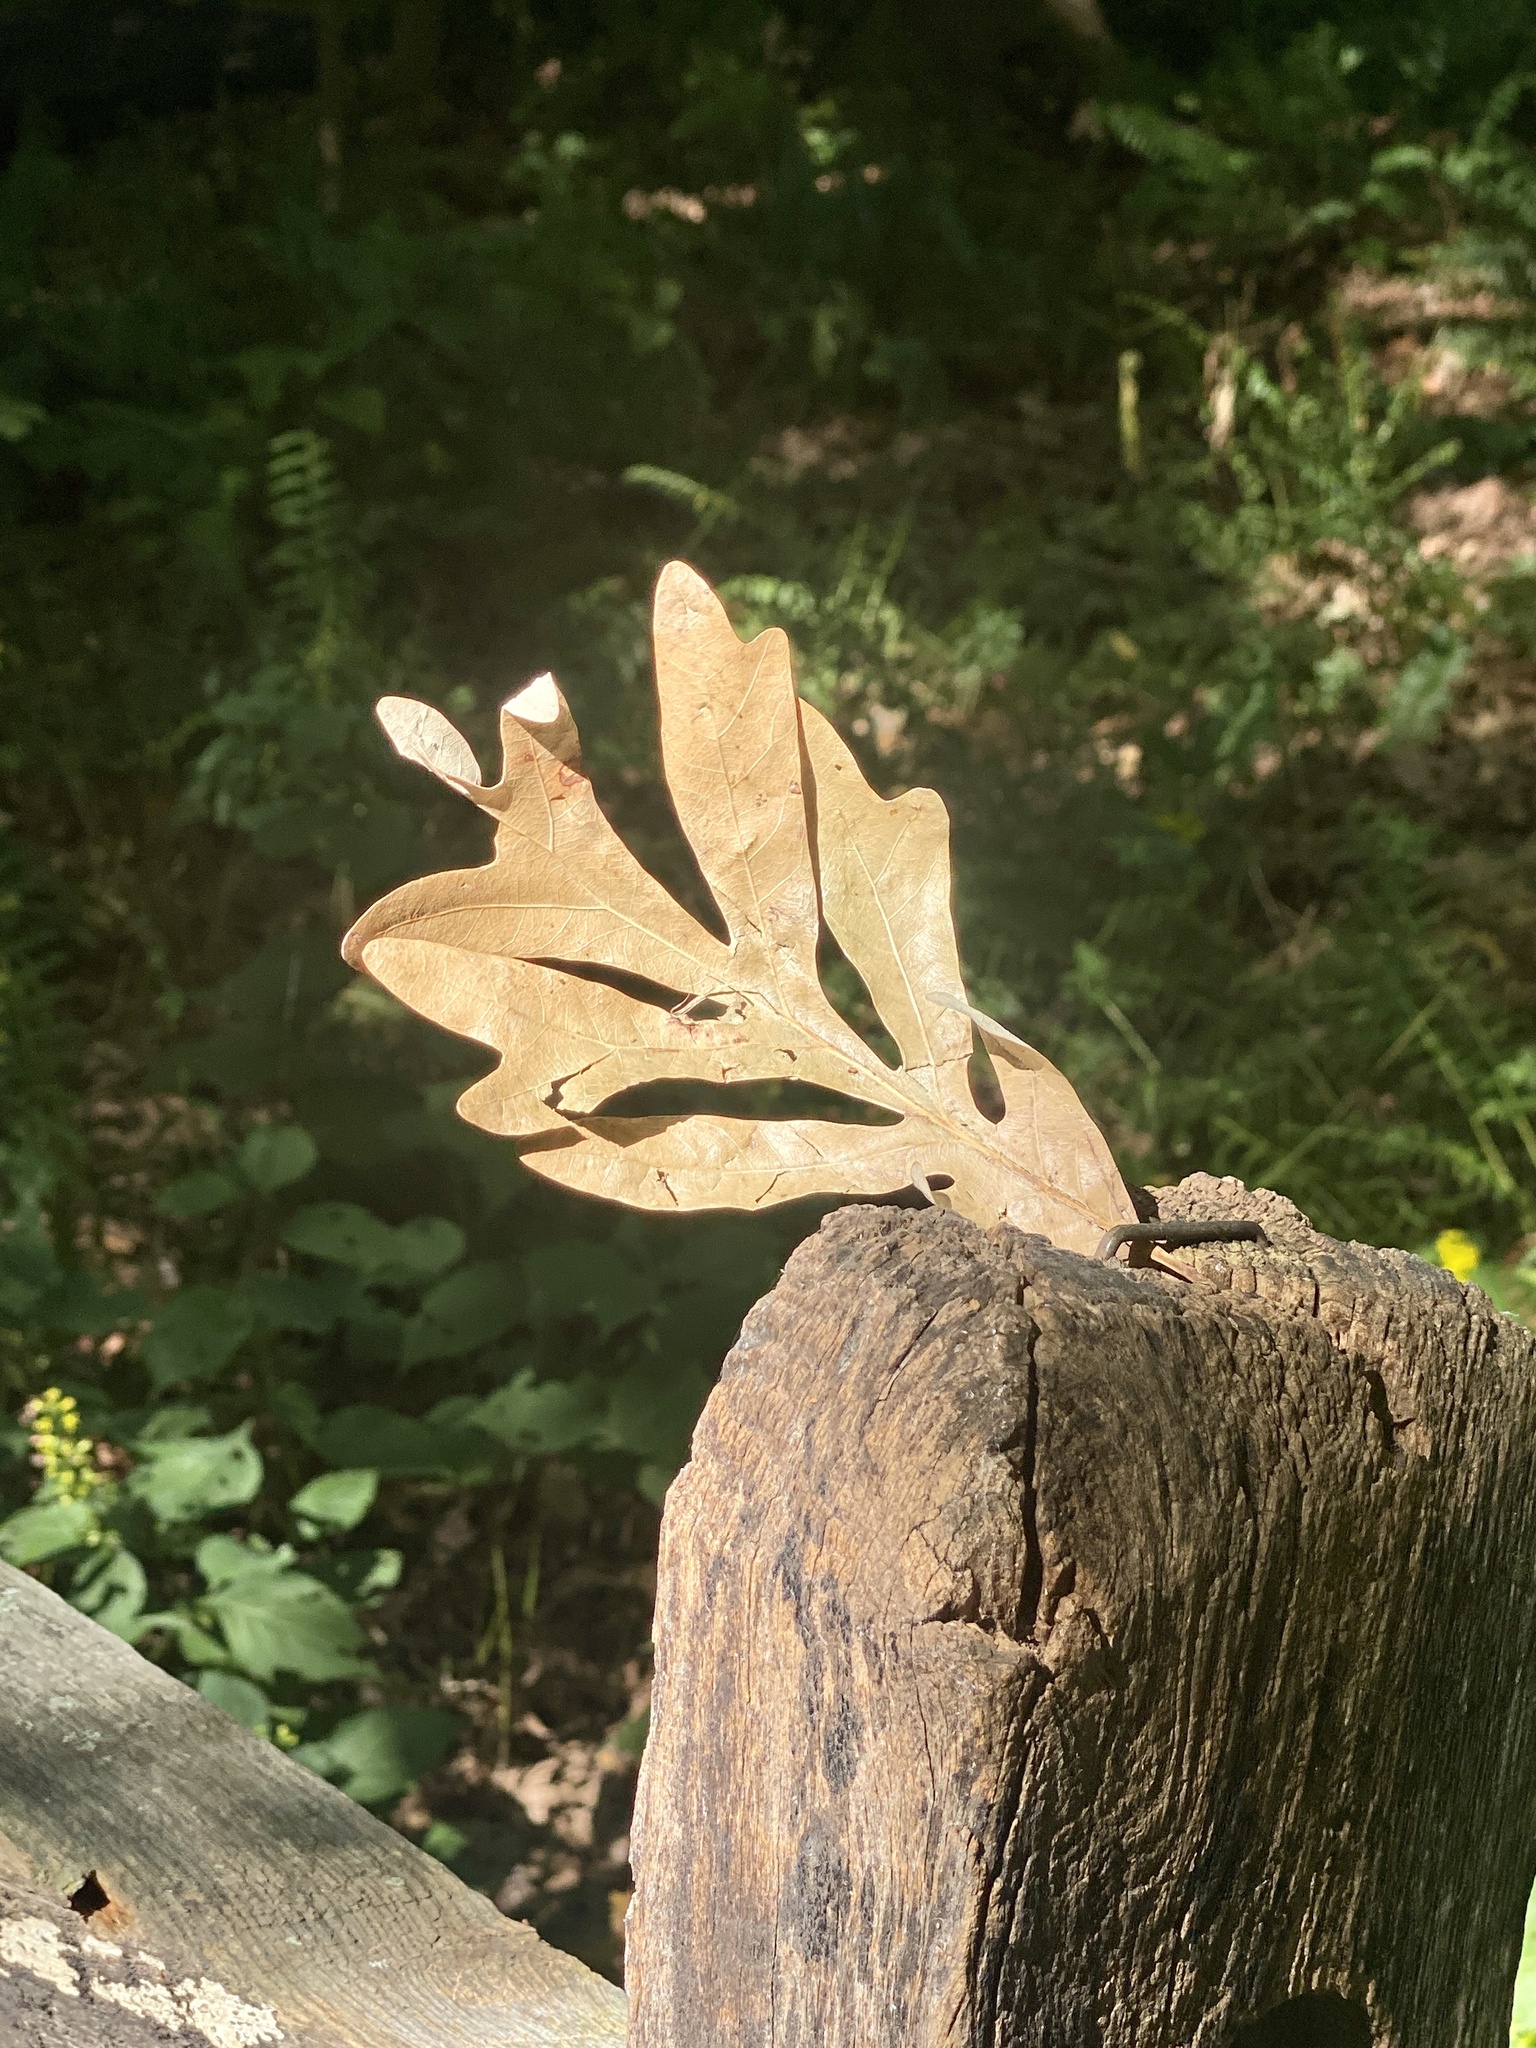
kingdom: Plantae
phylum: Tracheophyta
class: Magnoliopsida
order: Fagales
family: Fagaceae
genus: Quercus
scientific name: Quercus alba
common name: White oak
